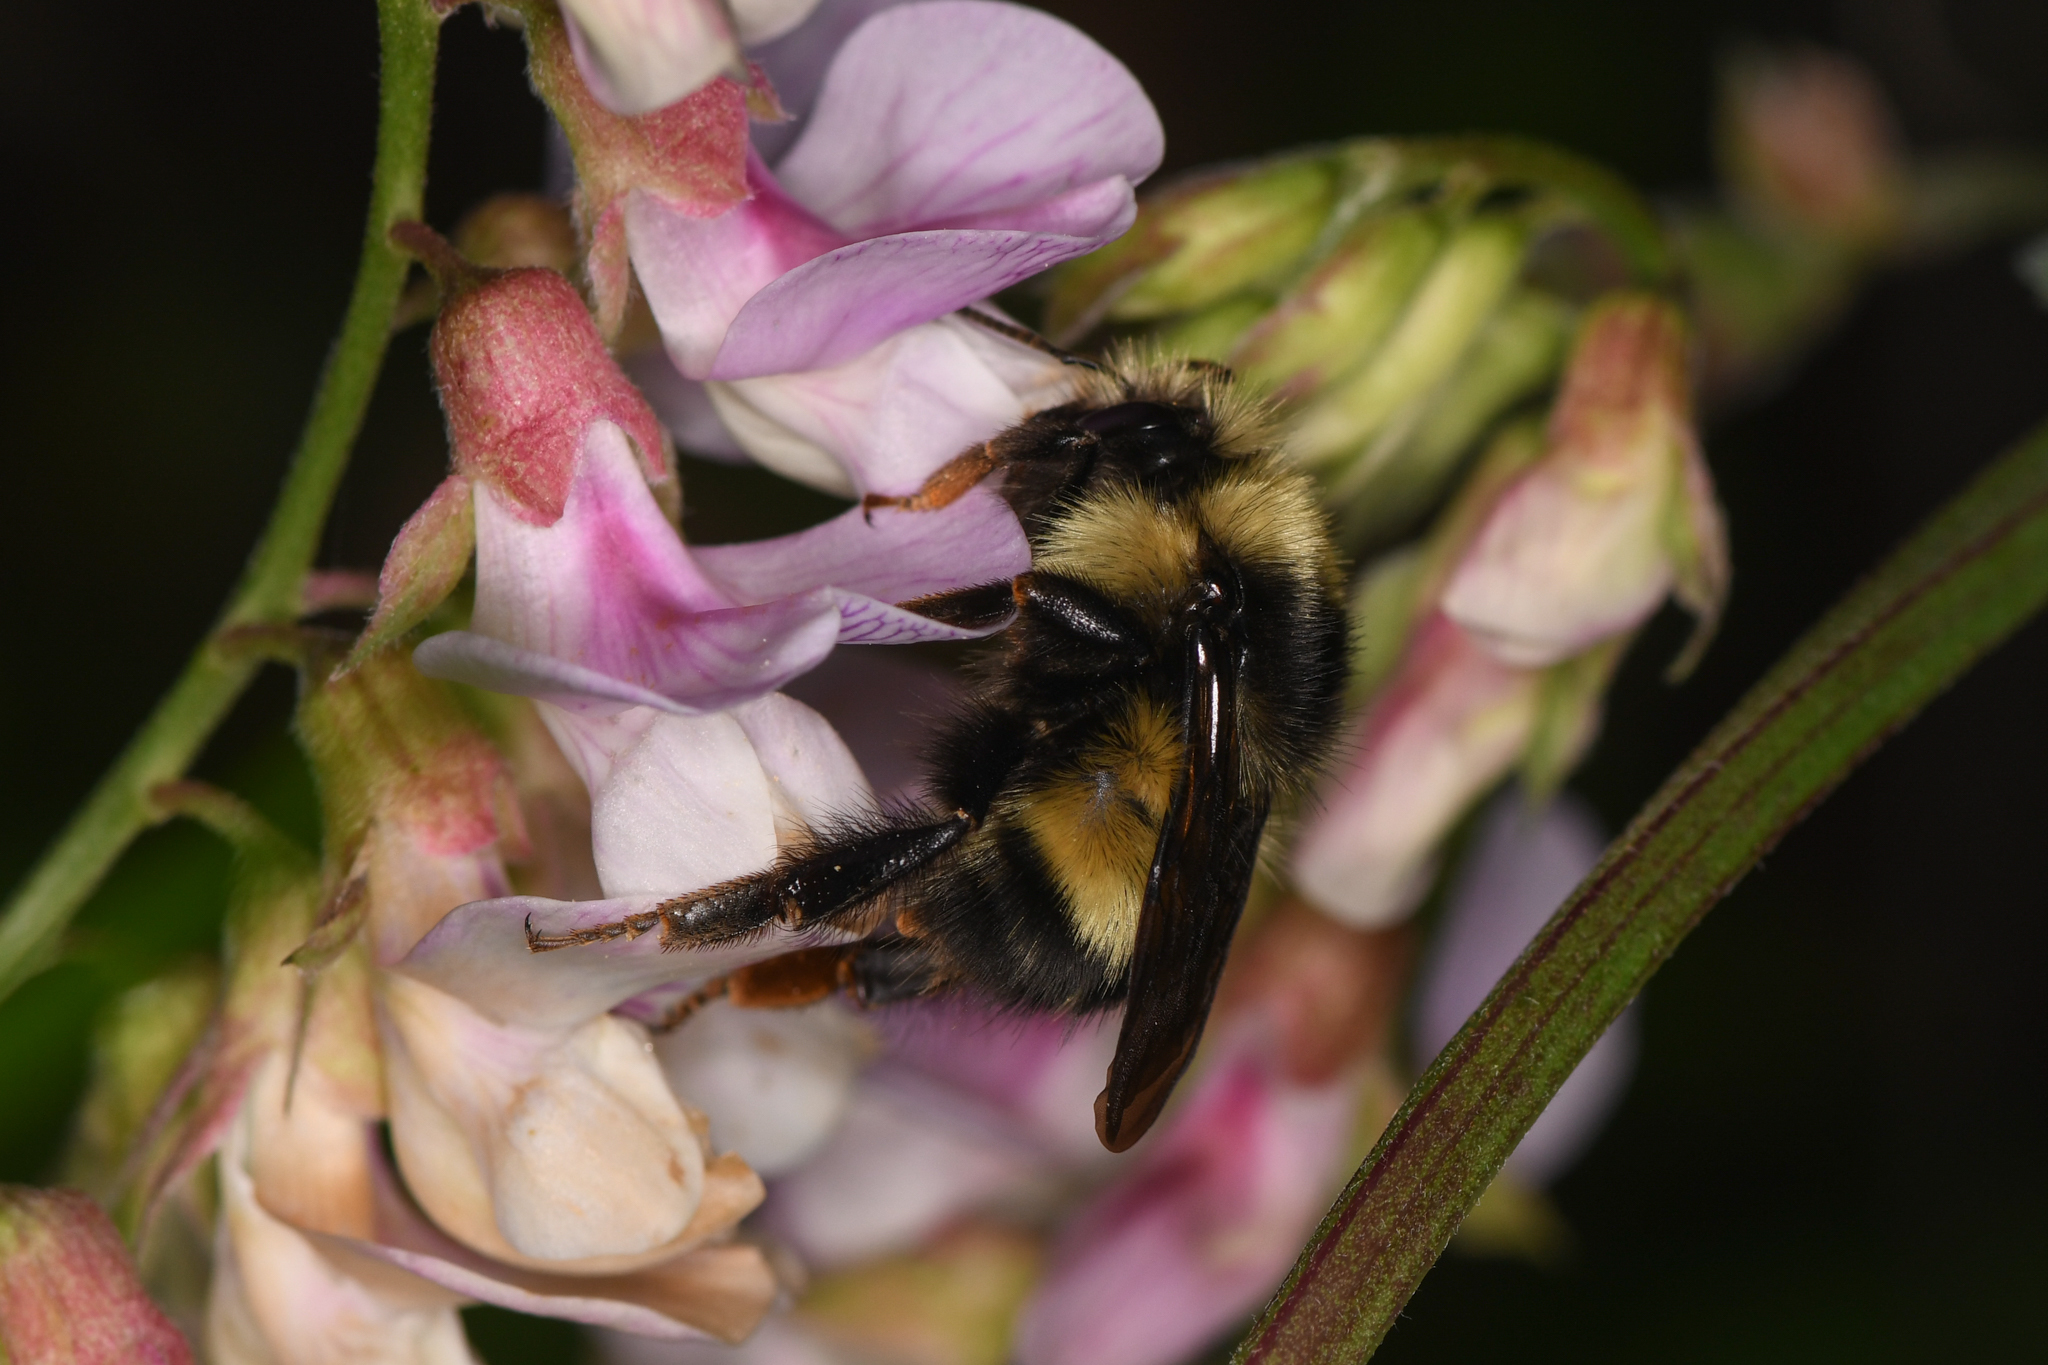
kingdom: Animalia
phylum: Arthropoda
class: Insecta
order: Hymenoptera
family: Apidae
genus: Bombus
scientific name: Bombus flavifrons
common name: Yellow head bumble bee
